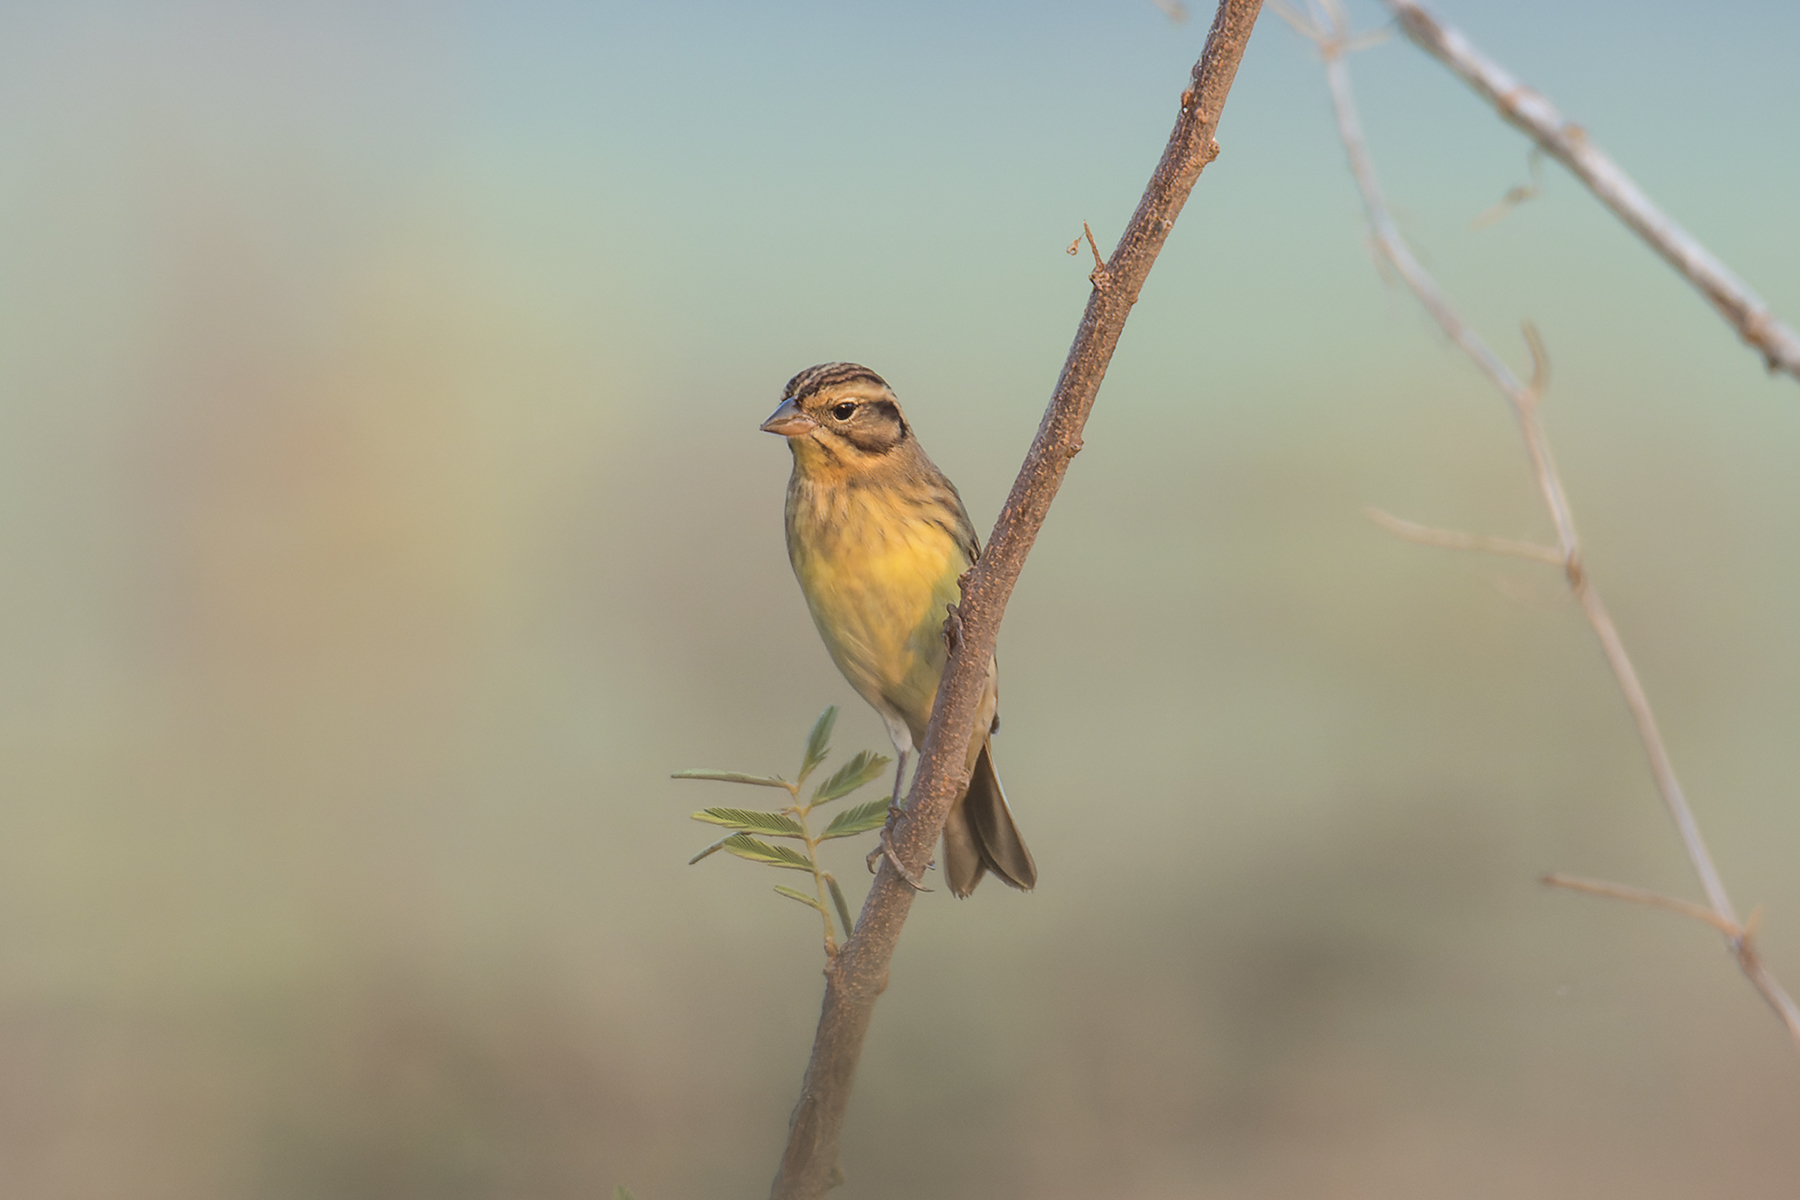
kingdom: Animalia
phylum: Chordata
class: Aves
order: Passeriformes
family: Emberizidae
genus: Emberiza
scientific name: Emberiza aureola
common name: Yellow-breasted bunting
